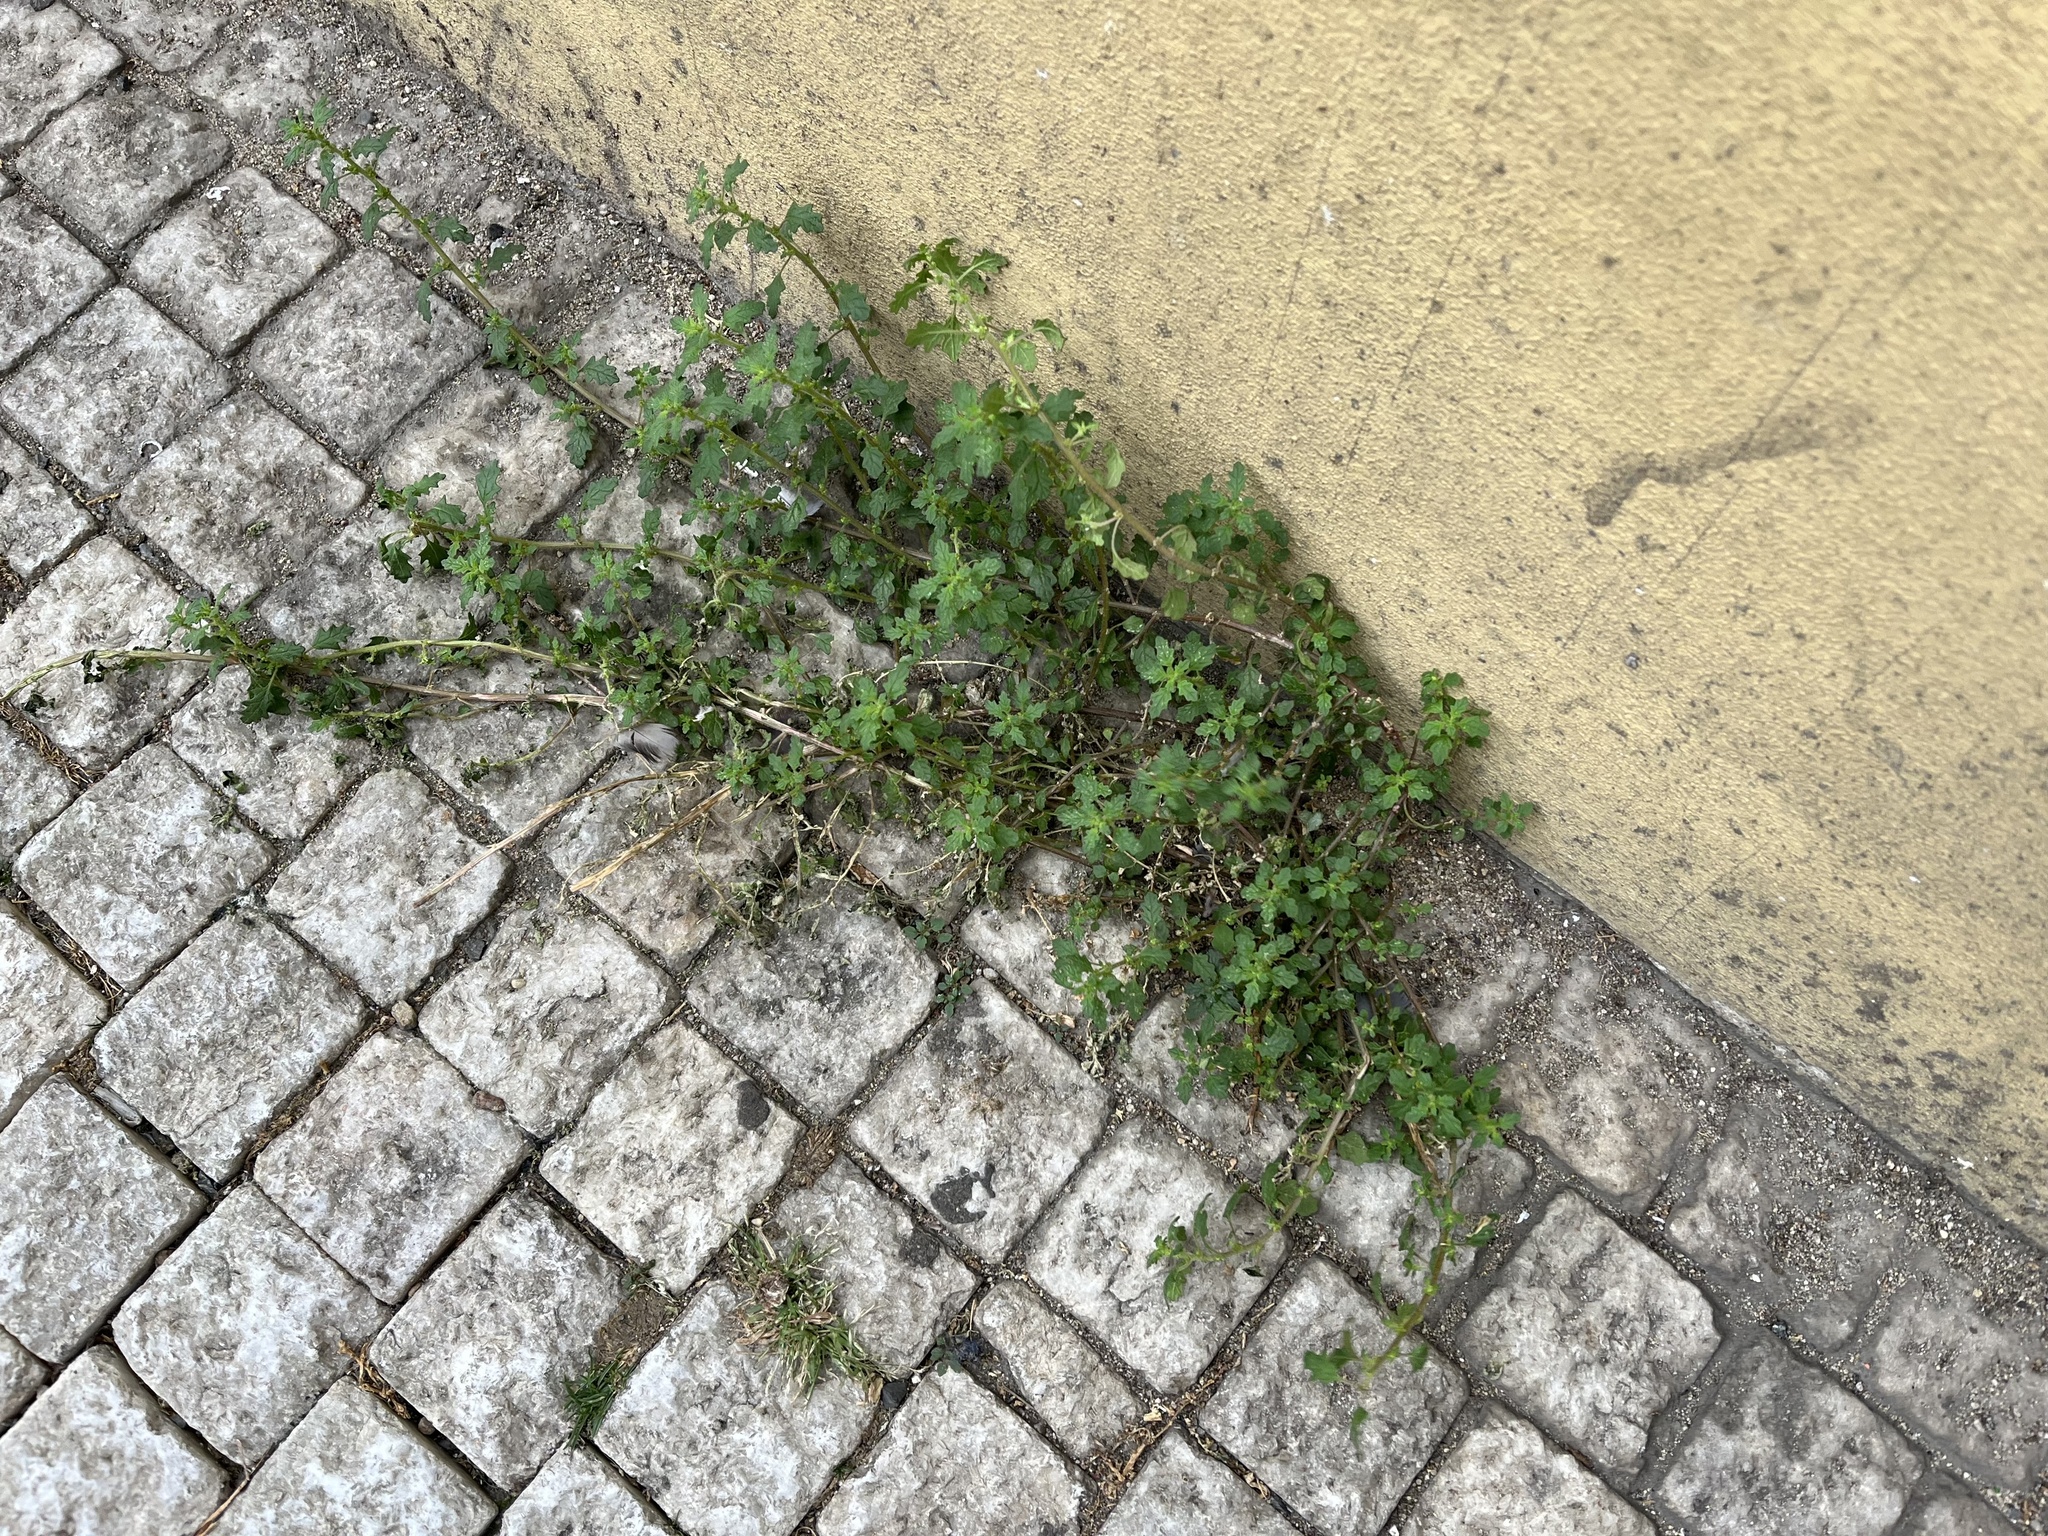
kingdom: Plantae
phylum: Tracheophyta
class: Magnoliopsida
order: Caryophyllales
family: Amaranthaceae
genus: Dysphania
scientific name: Dysphania pumilio
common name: Clammy goosefoot
